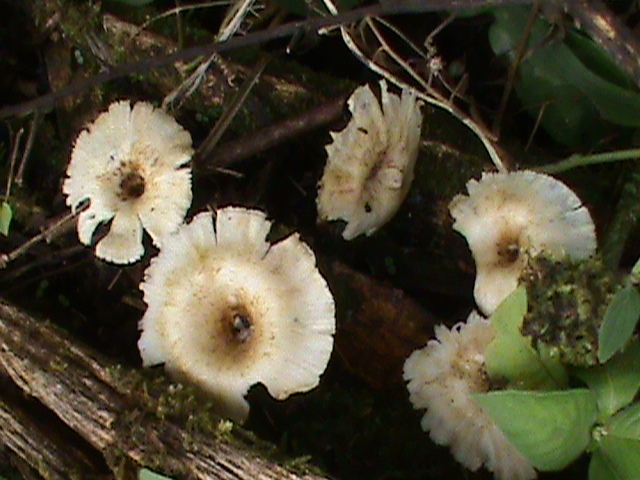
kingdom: Fungi
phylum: Basidiomycota
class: Agaricomycetes
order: Polyporales
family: Polyporaceae
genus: Lentinus
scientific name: Lentinus crinitus
